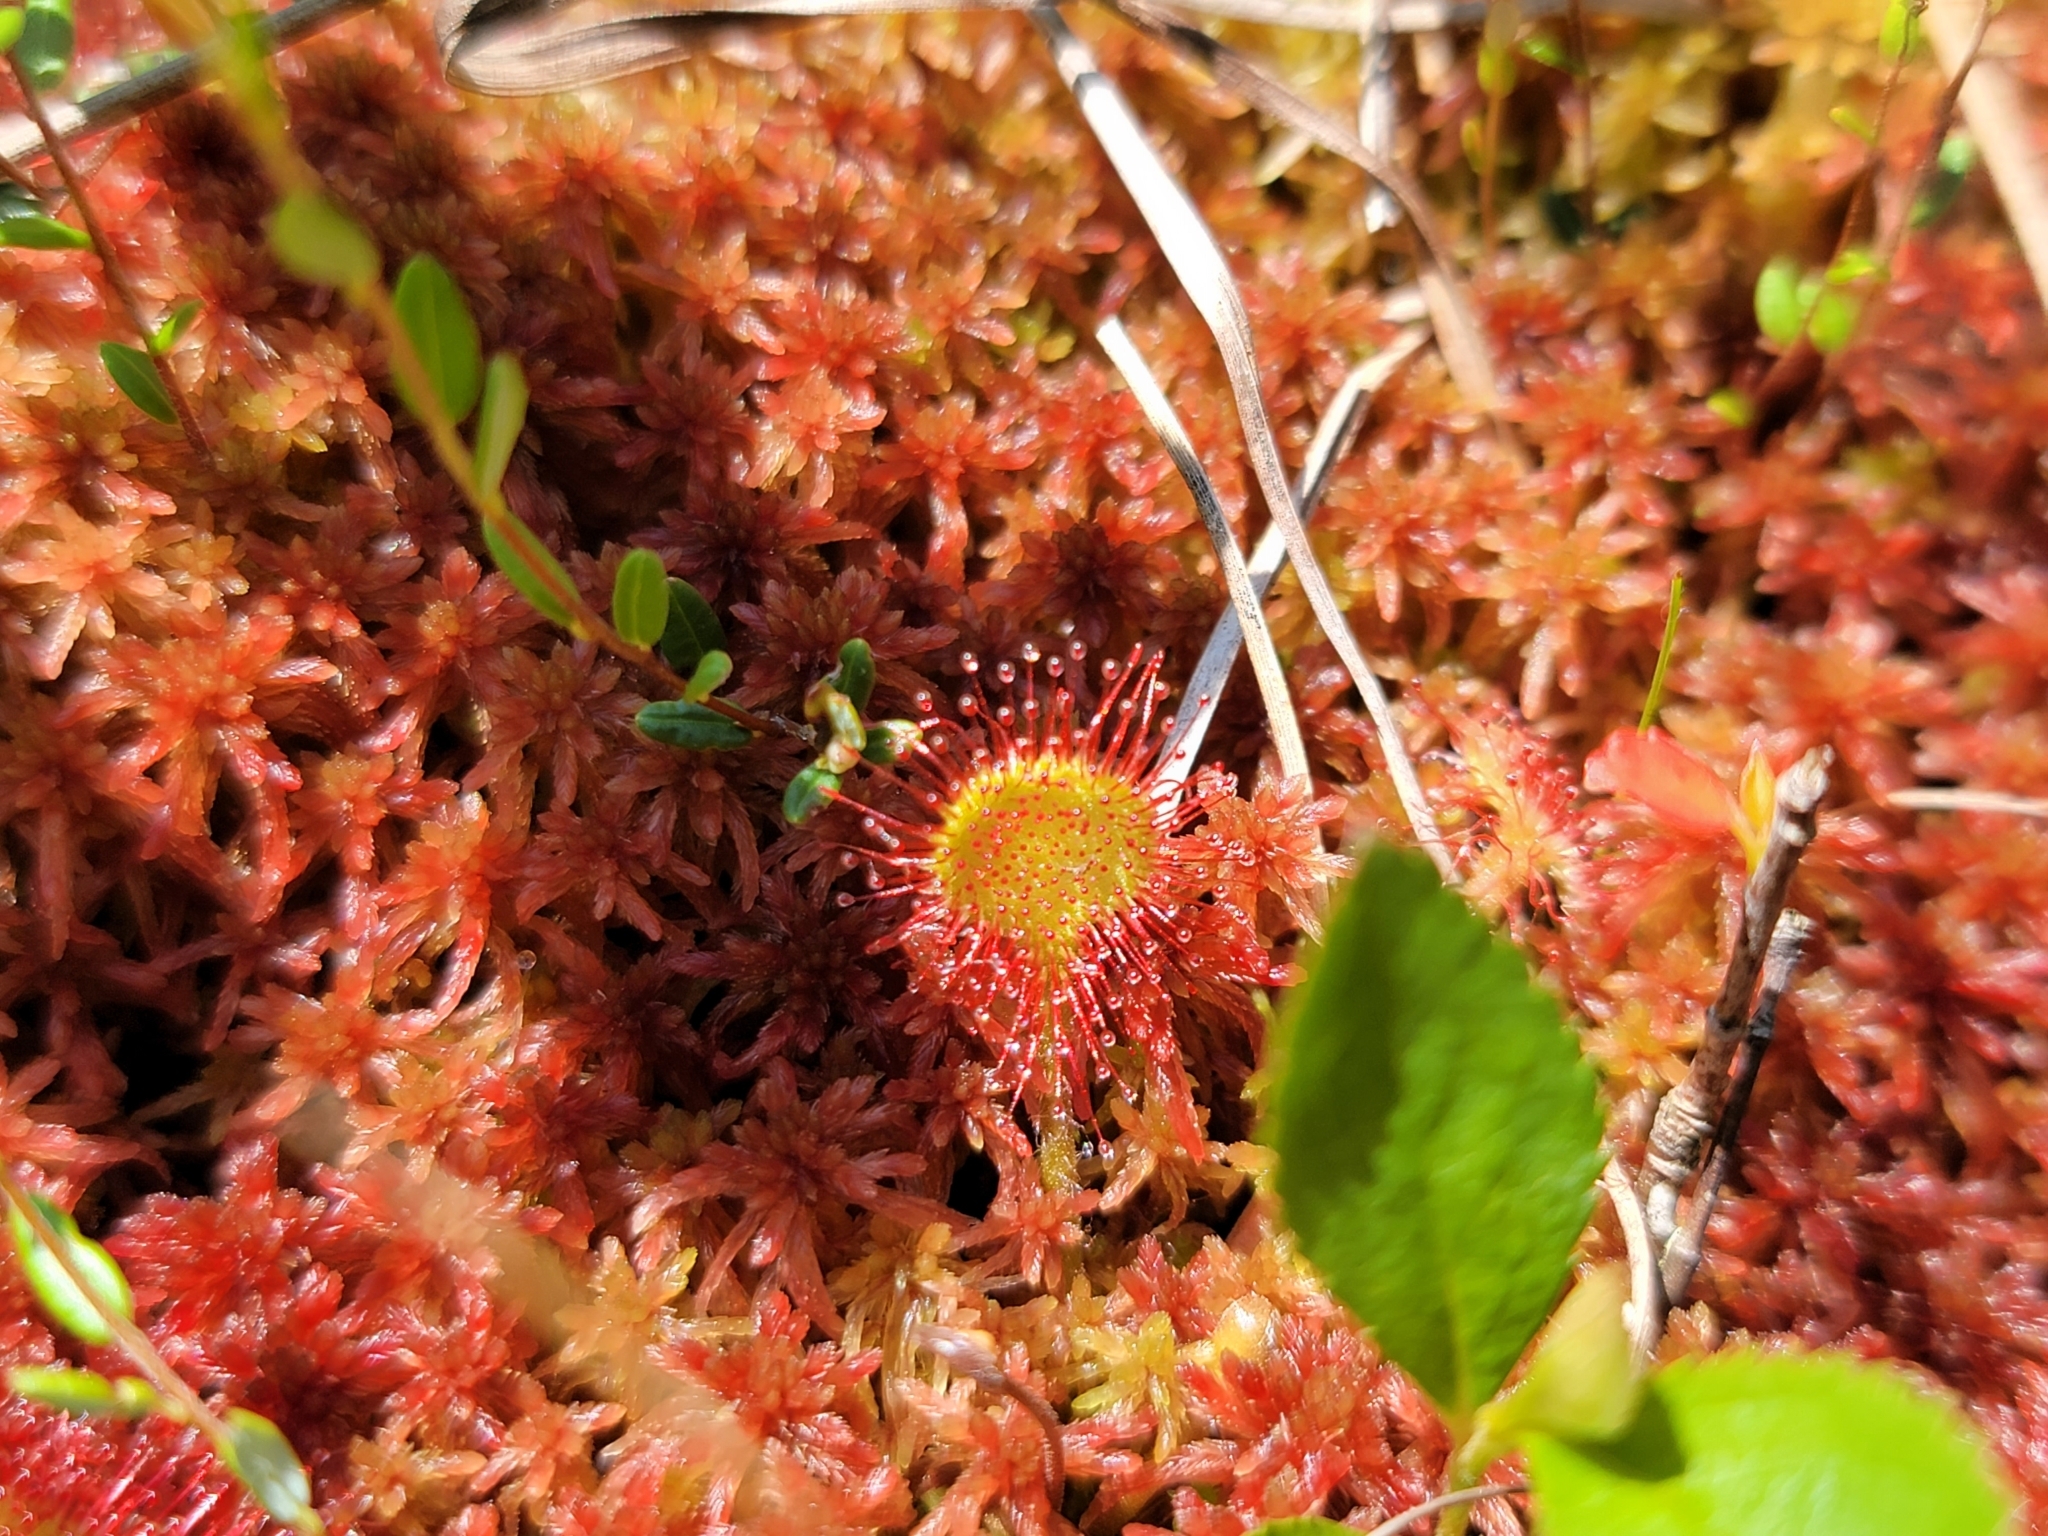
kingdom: Plantae
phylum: Tracheophyta
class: Magnoliopsida
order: Caryophyllales
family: Droseraceae
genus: Drosera
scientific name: Drosera rotundifolia
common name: Round-leaved sundew
